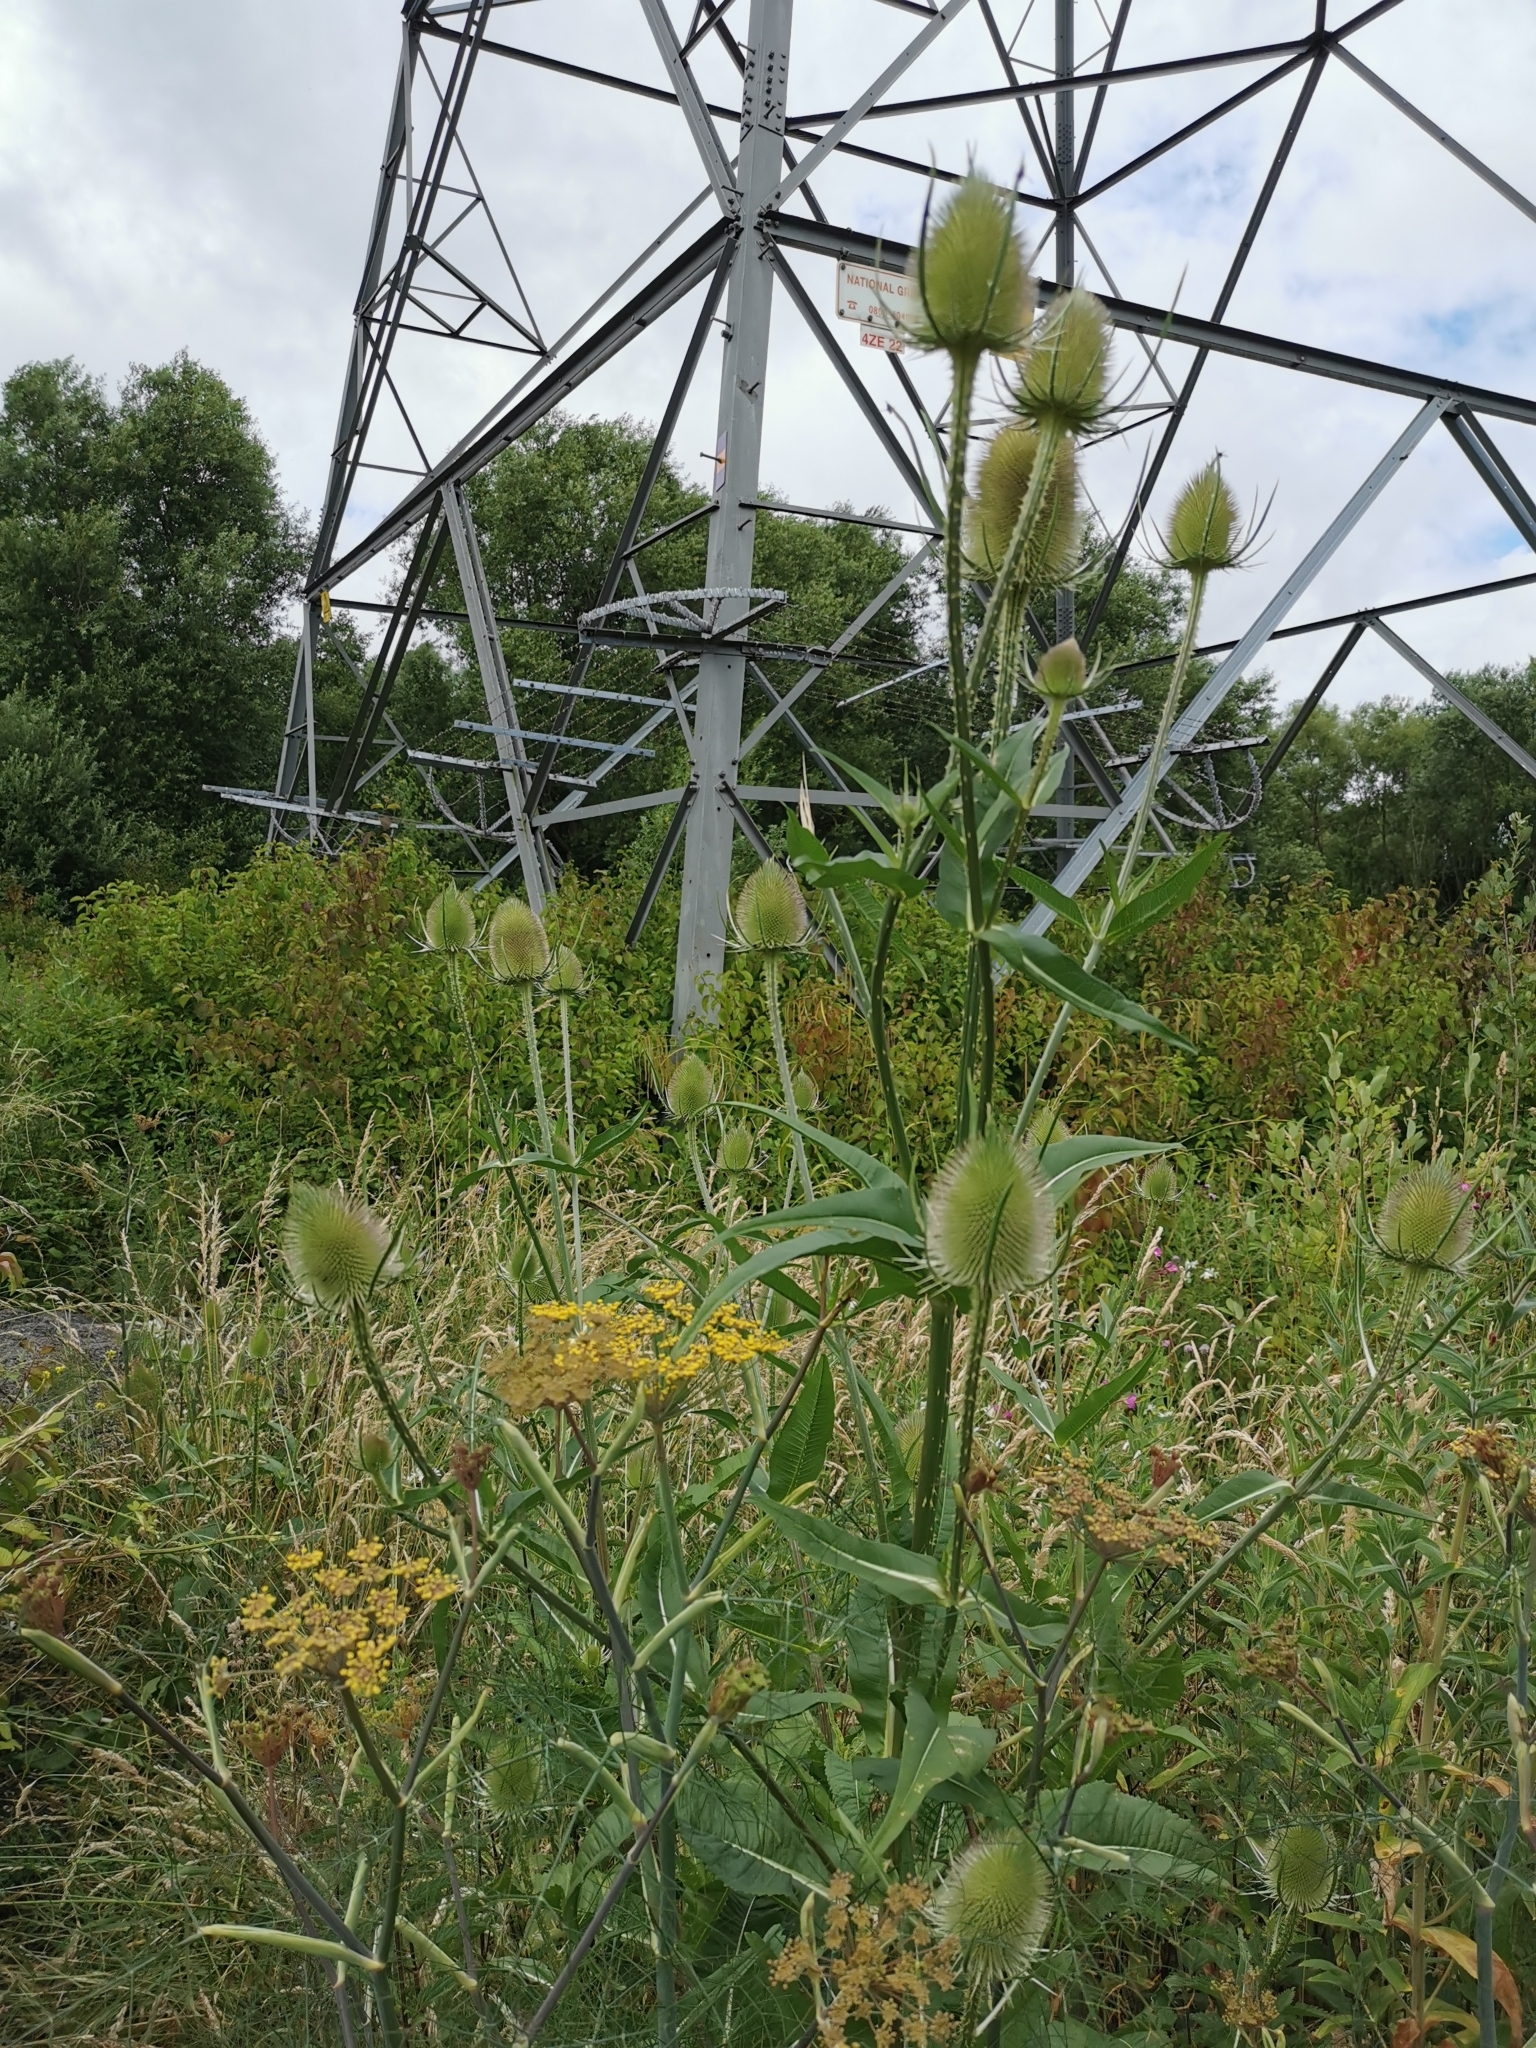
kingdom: Plantae
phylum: Tracheophyta
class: Magnoliopsida
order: Dipsacales
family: Caprifoliaceae
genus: Dipsacus
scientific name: Dipsacus fullonum
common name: Teasel
